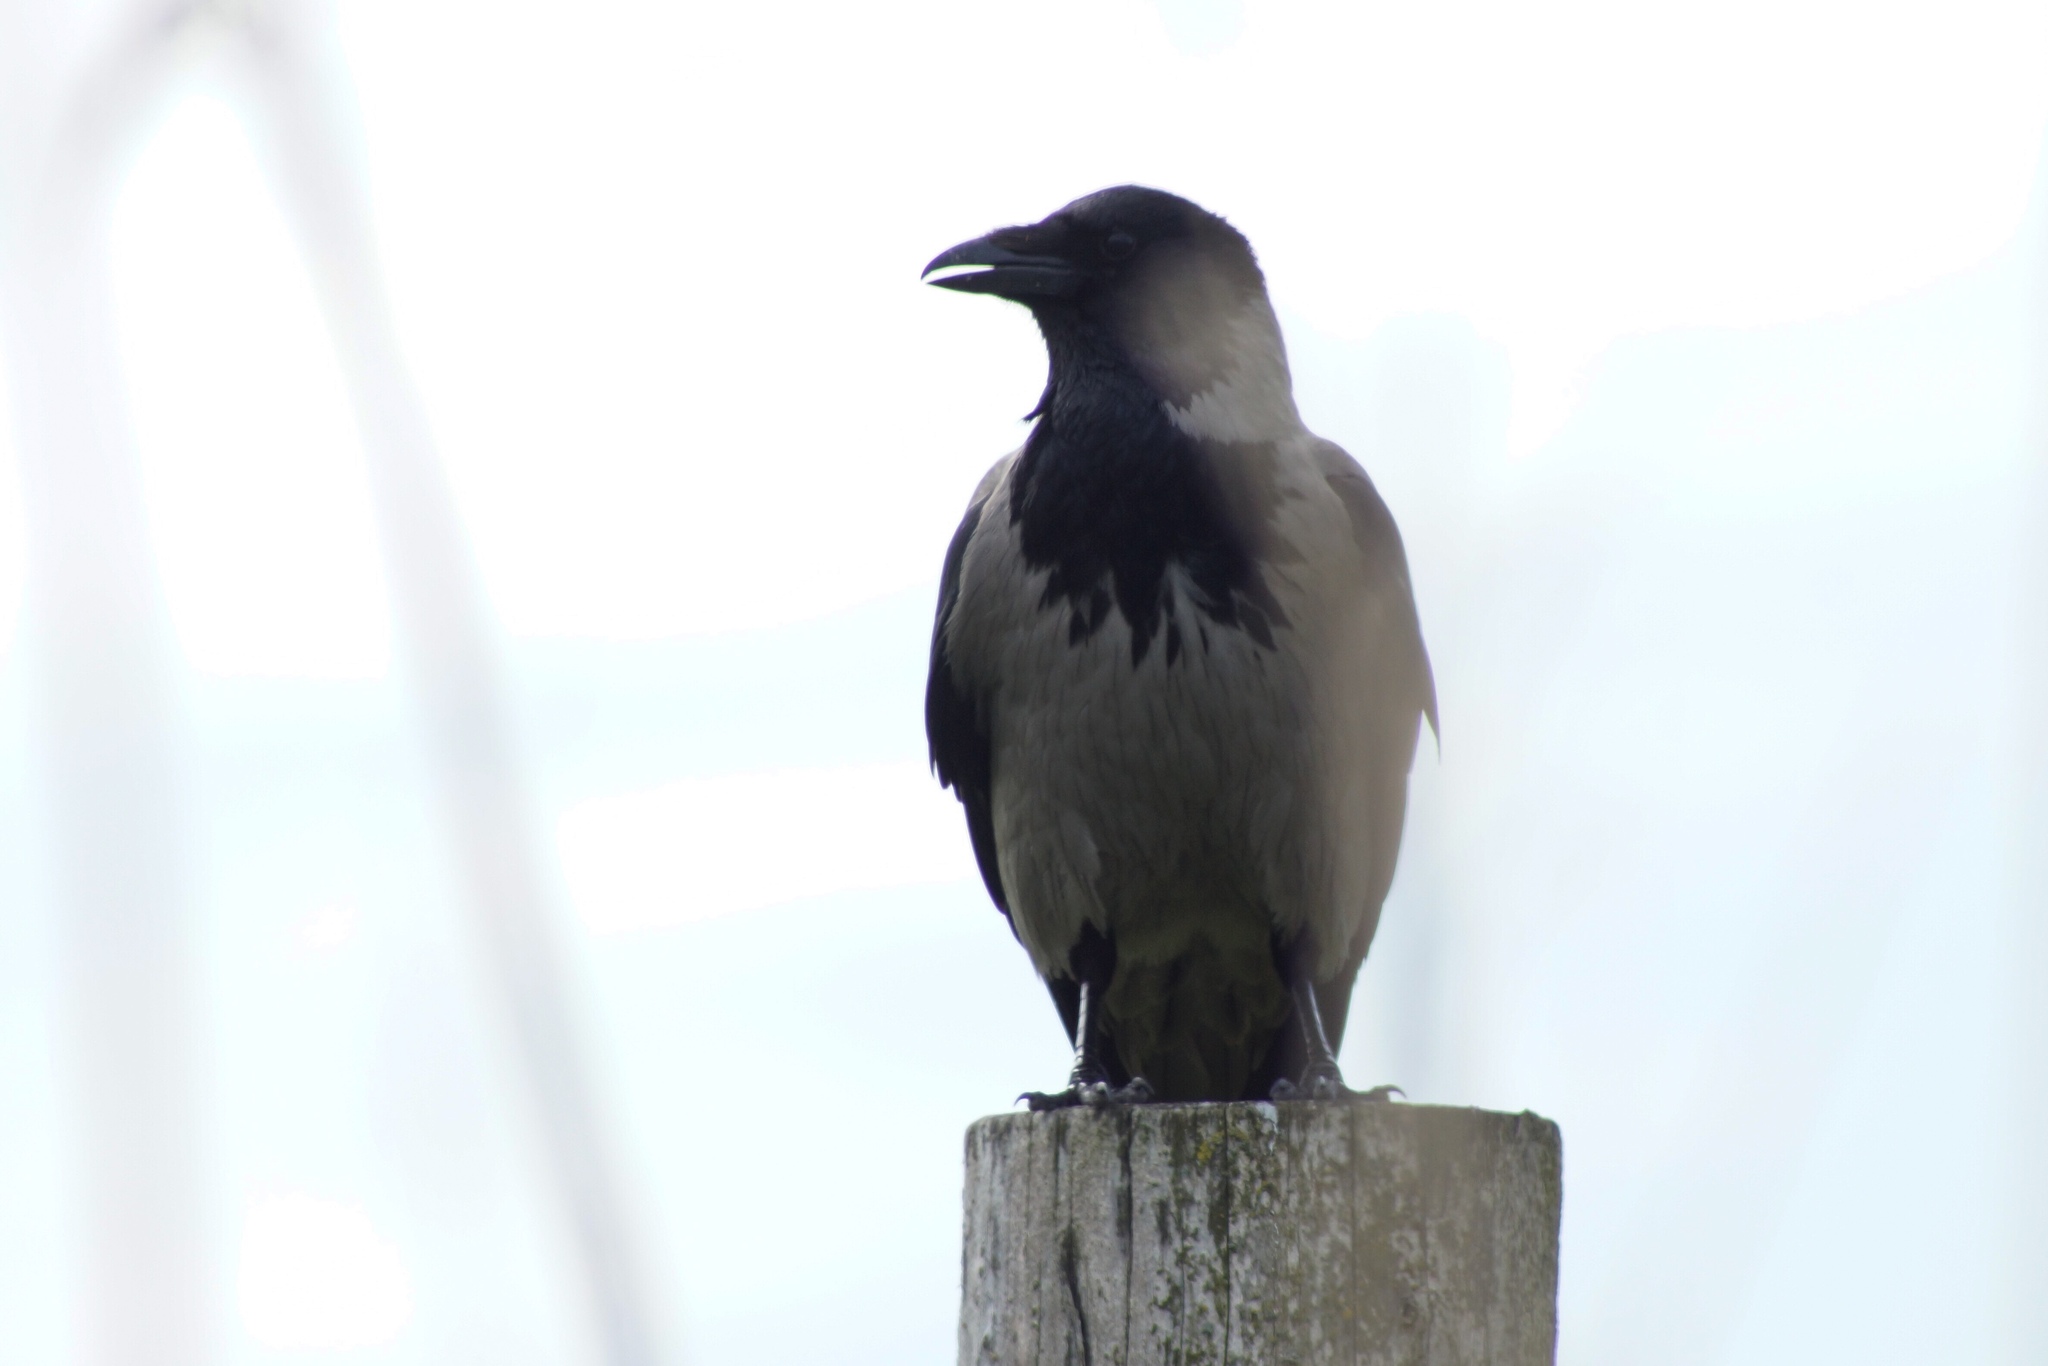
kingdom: Animalia
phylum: Chordata
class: Aves
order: Passeriformes
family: Corvidae
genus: Corvus
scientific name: Corvus cornix
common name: Hooded crow
